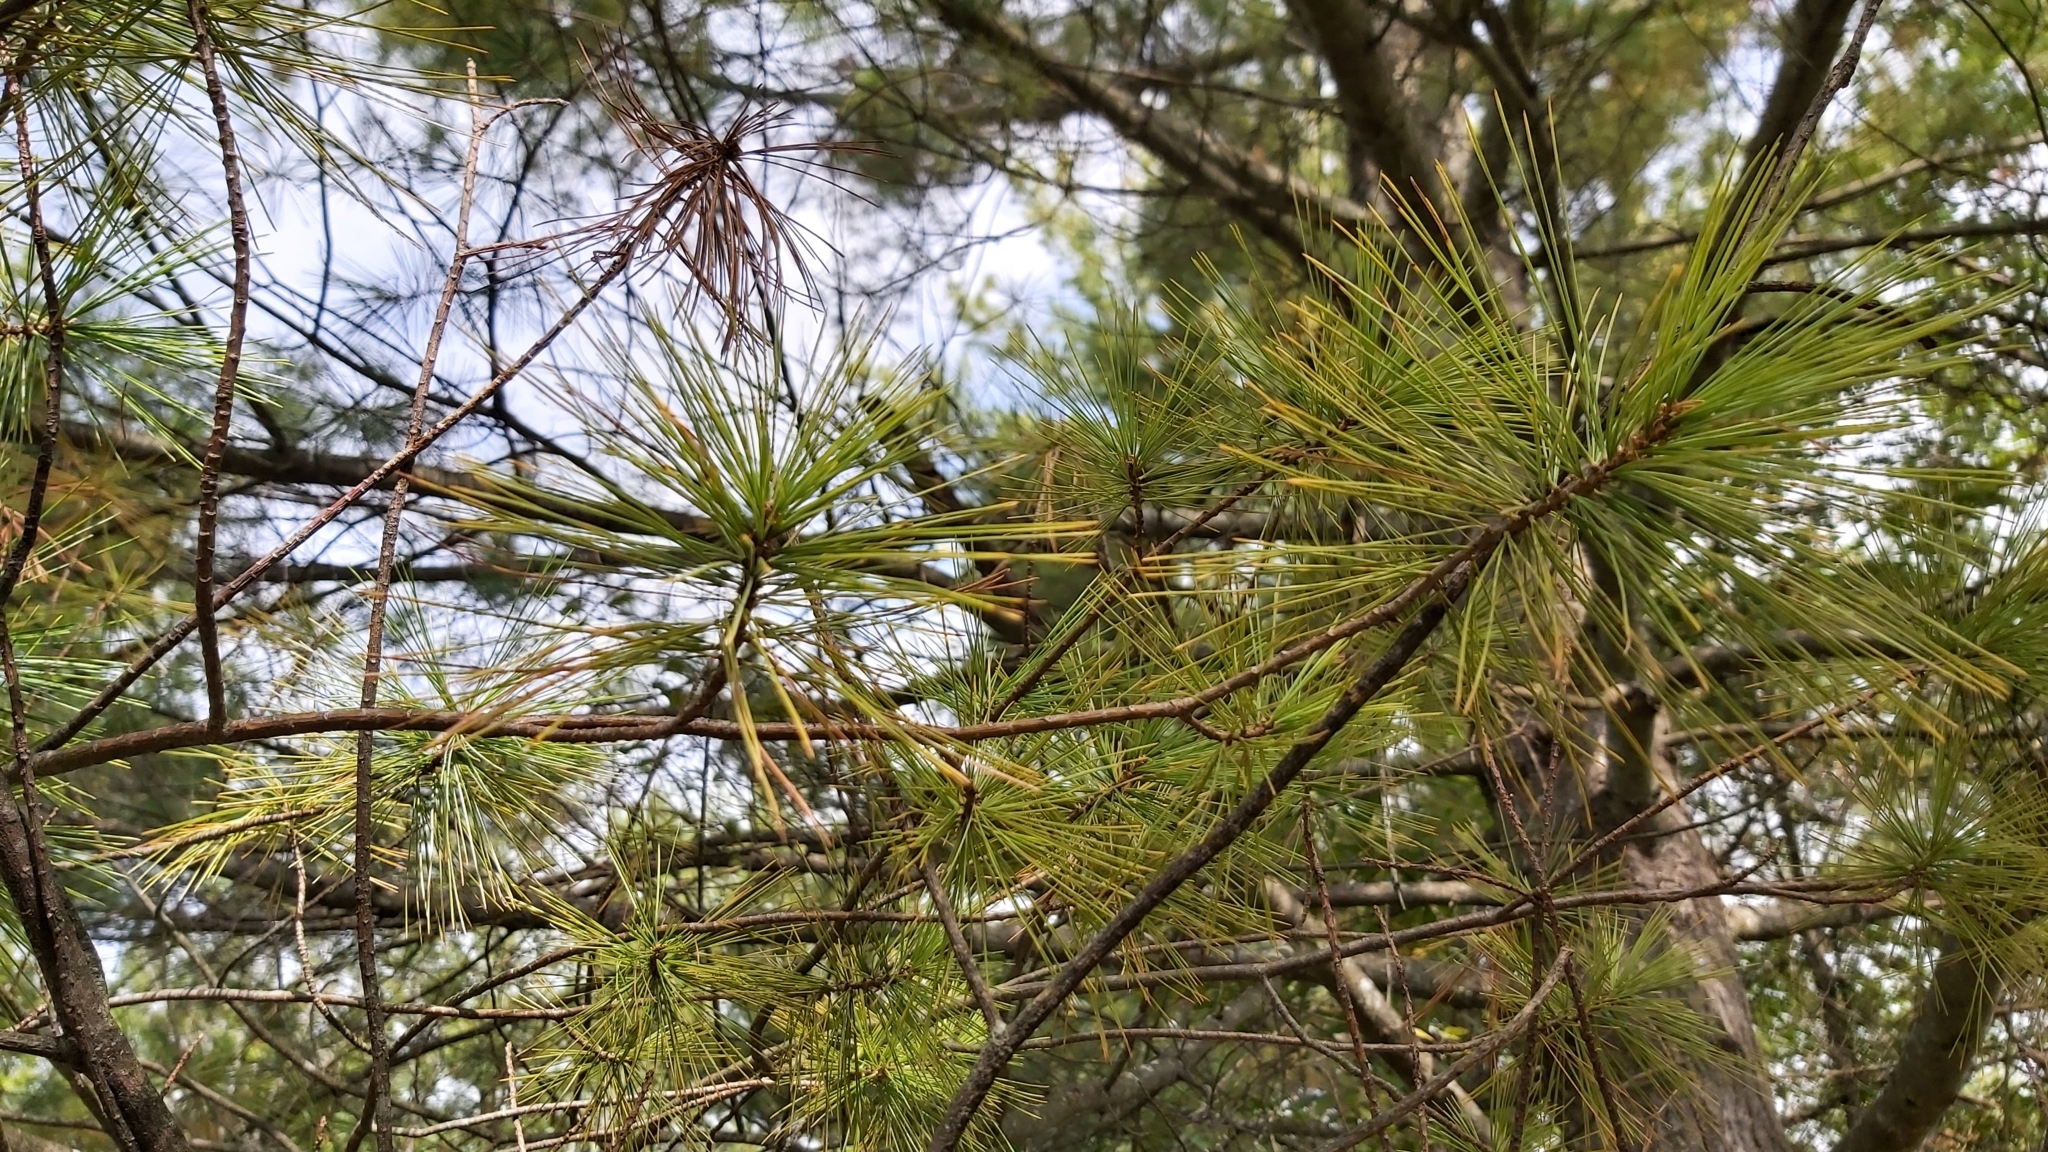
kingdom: Plantae
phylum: Tracheophyta
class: Pinopsida
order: Pinales
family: Pinaceae
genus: Pinus
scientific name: Pinus strobus
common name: Weymouth pine
